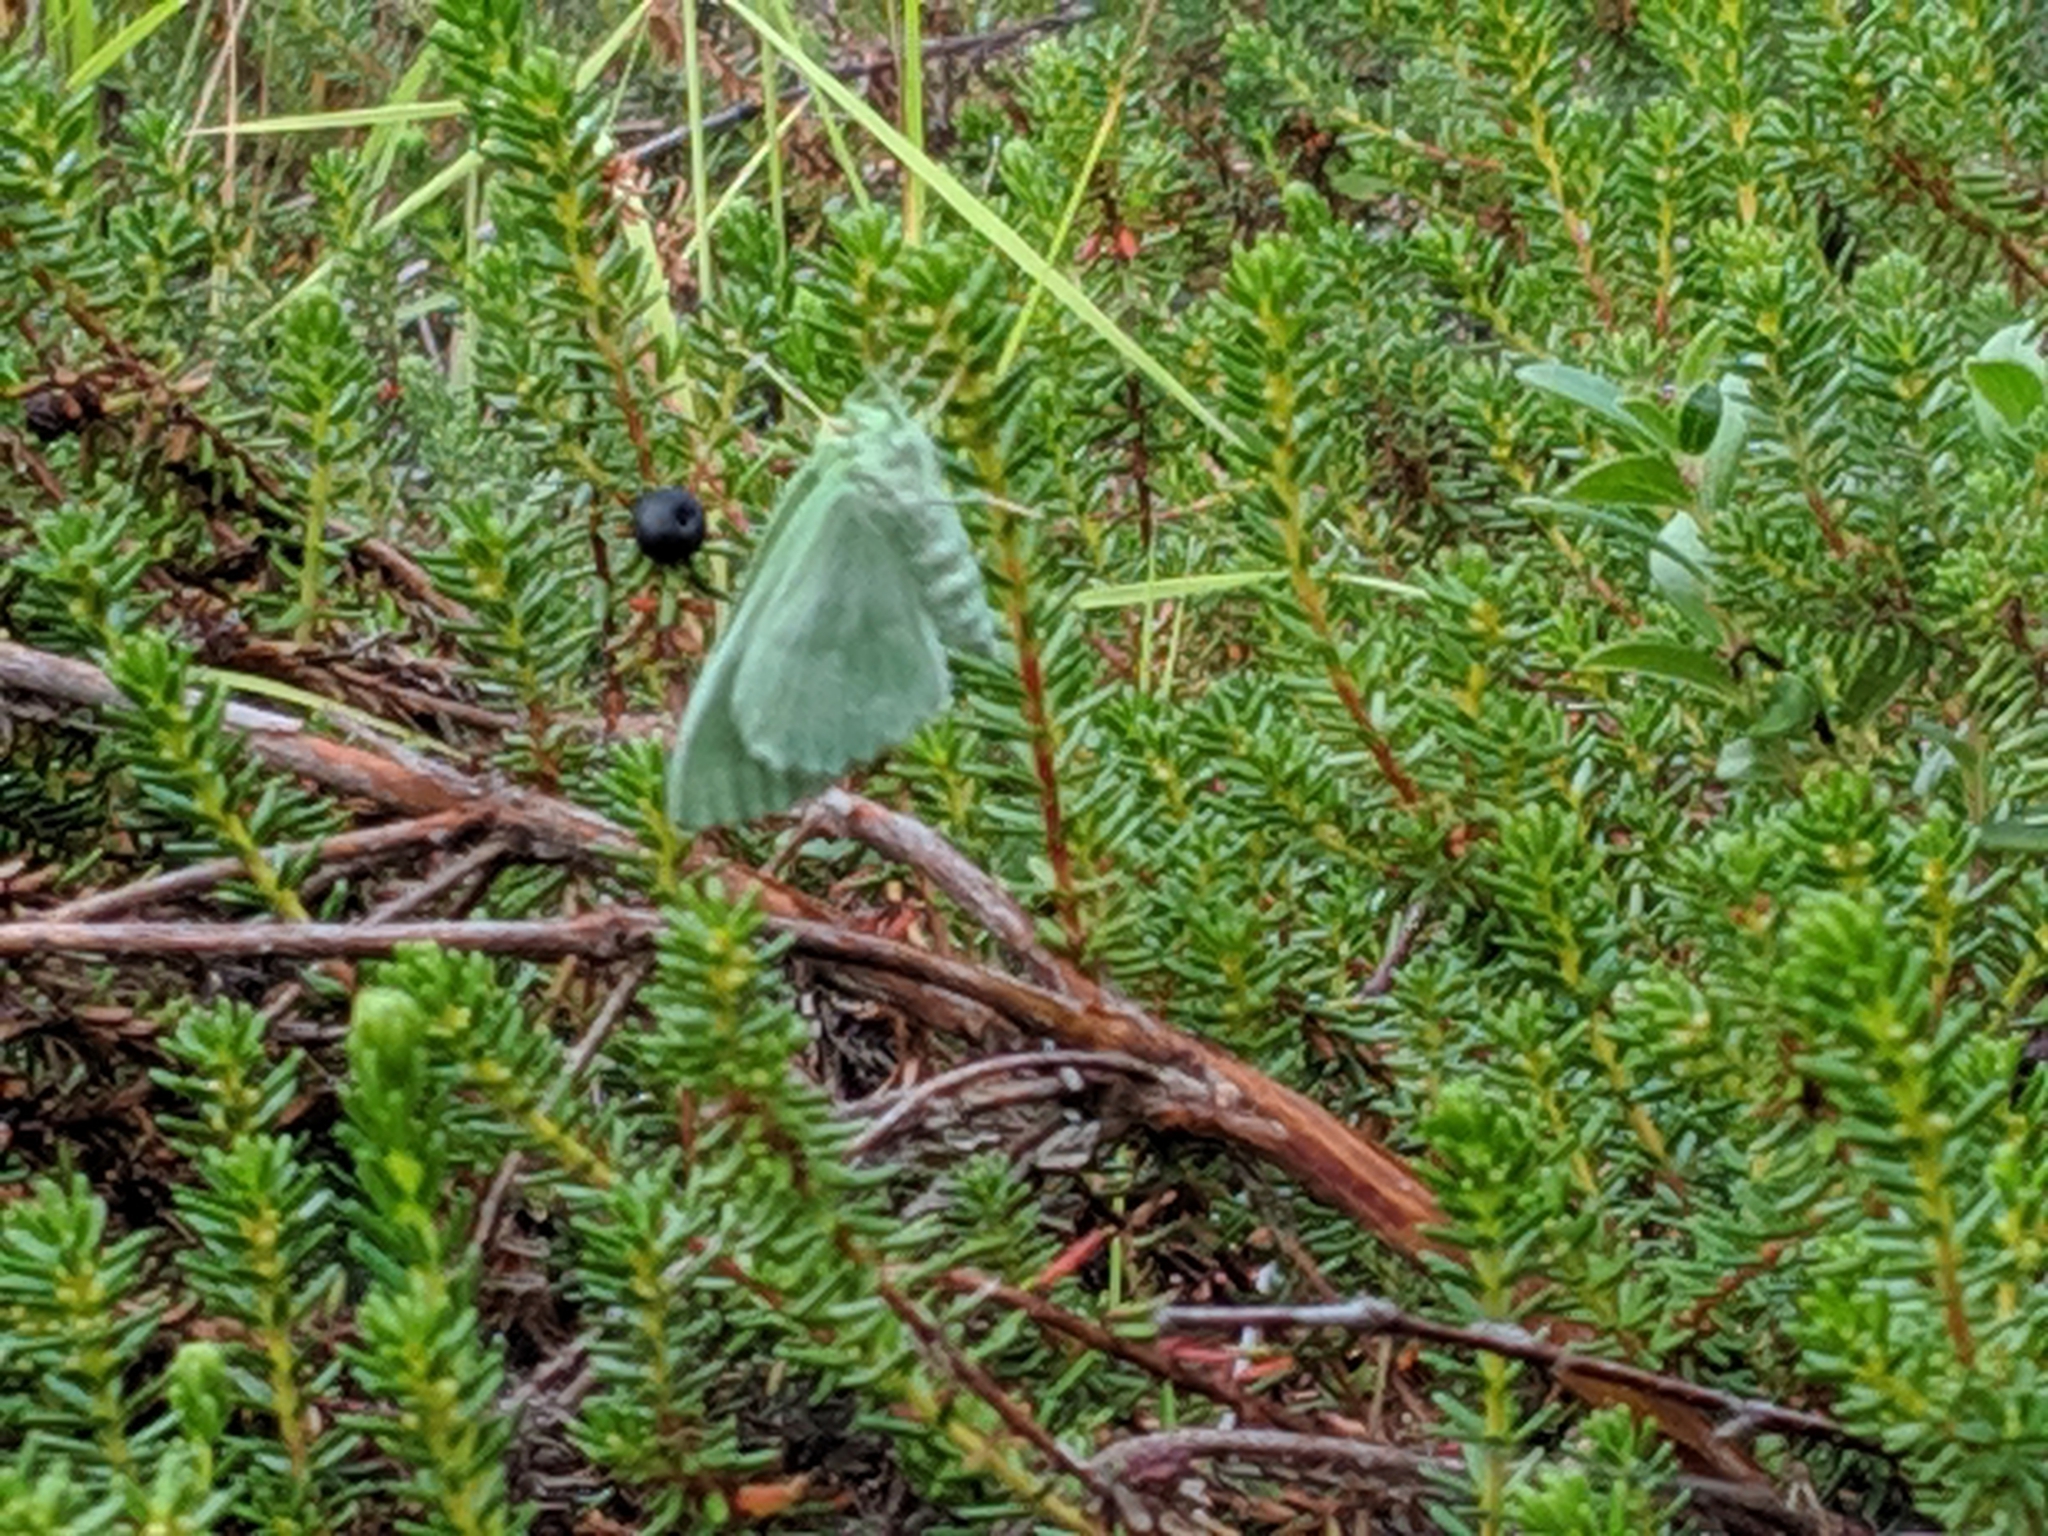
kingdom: Animalia
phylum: Arthropoda
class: Insecta
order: Lepidoptera
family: Geometridae
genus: Geometra
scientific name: Geometra papilionaria
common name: Large emerald
